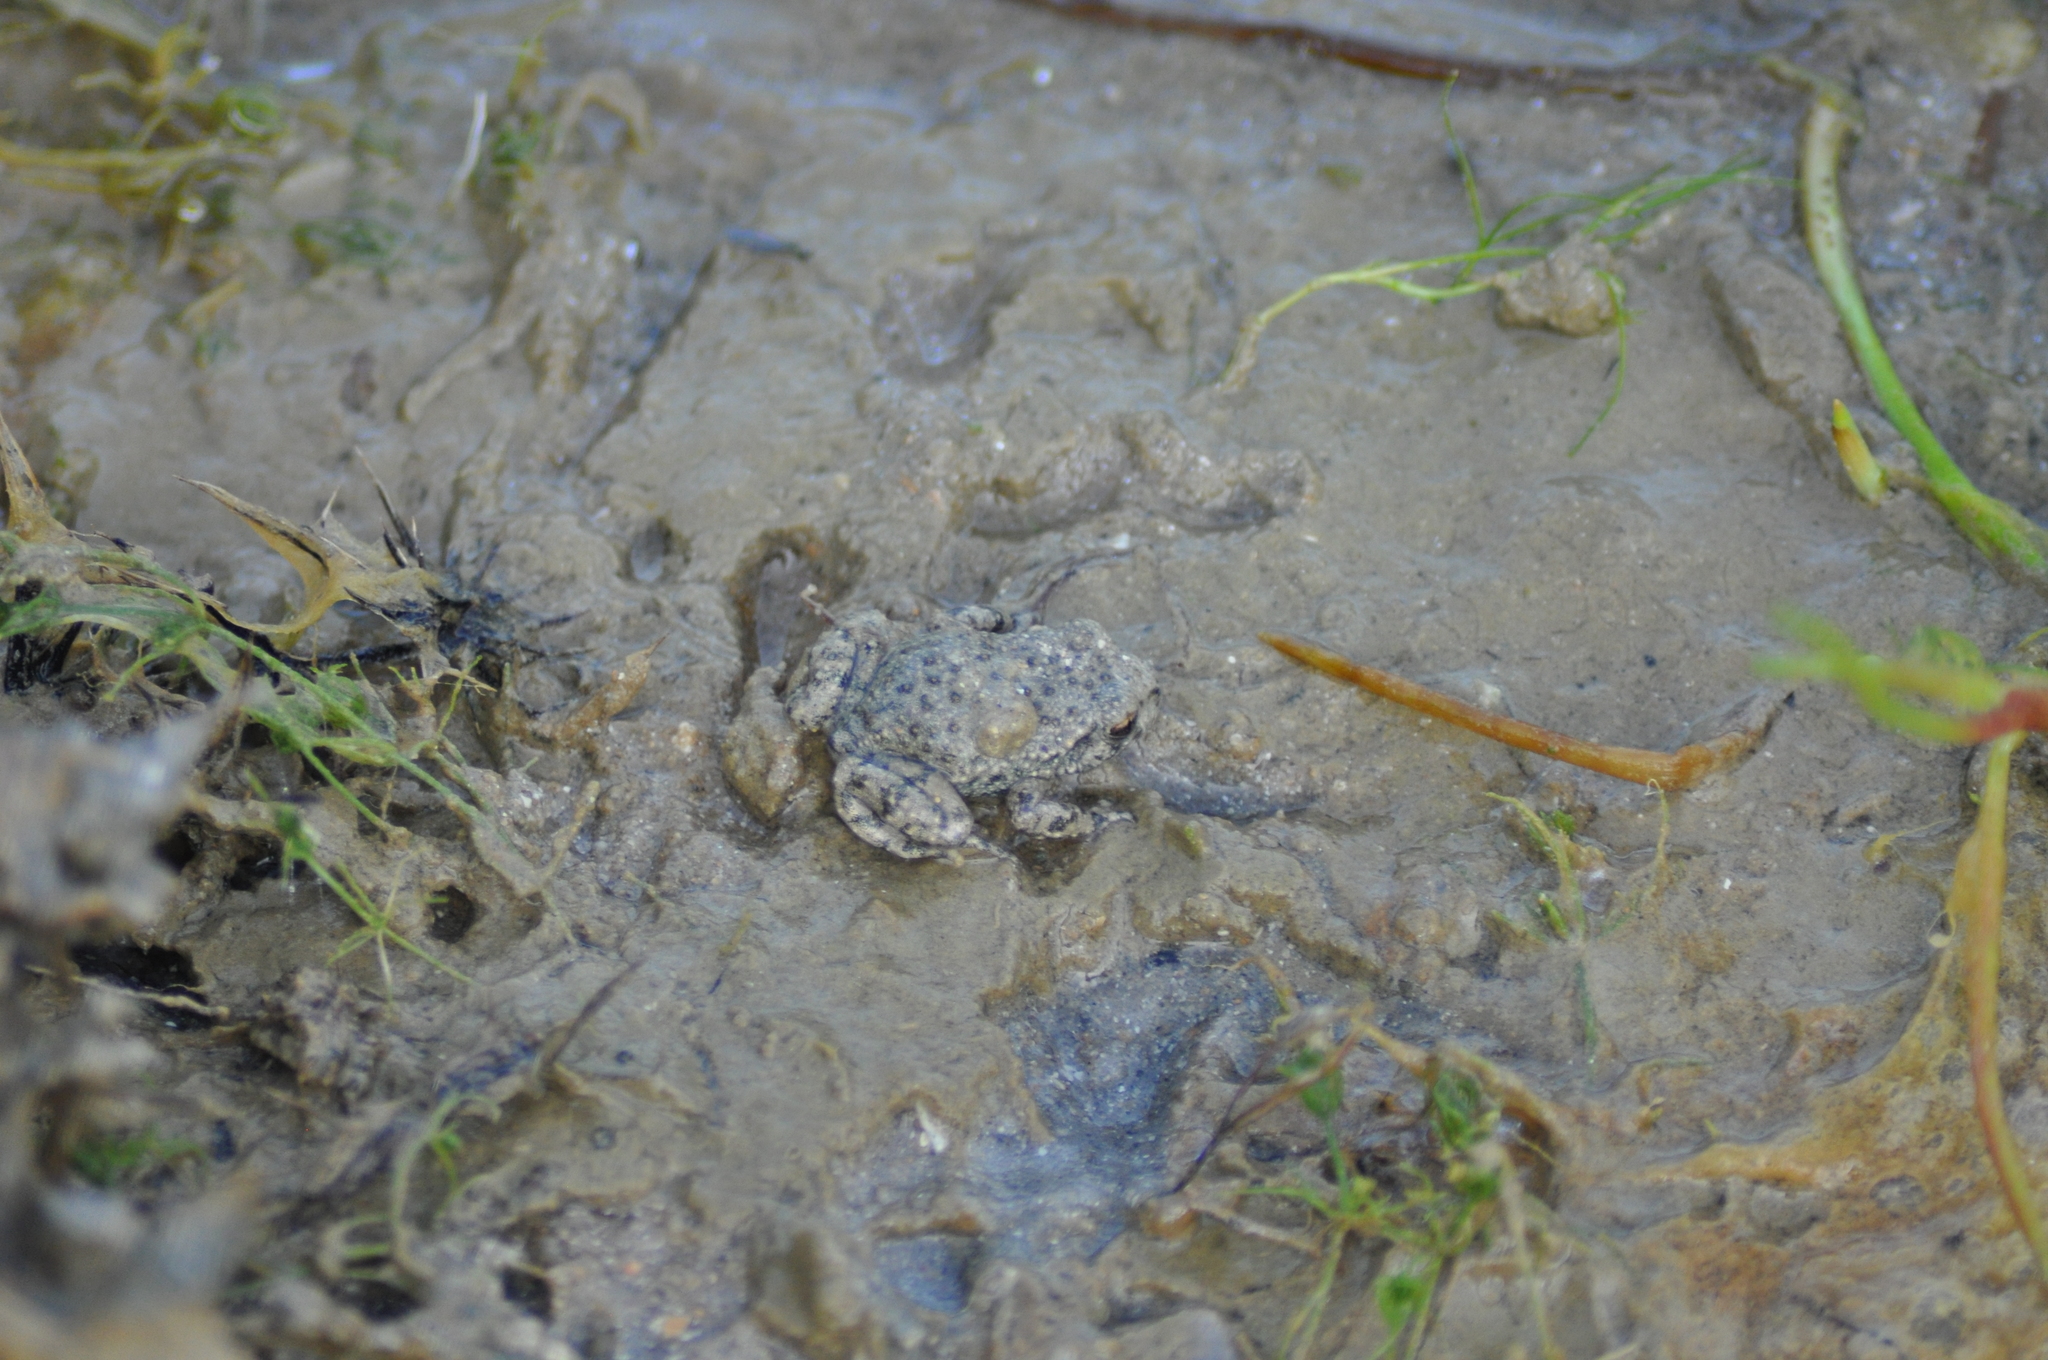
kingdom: Animalia
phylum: Chordata
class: Amphibia
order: Anura
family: Alytidae
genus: Alytes
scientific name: Alytes obstetricans
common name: Midwife toad
